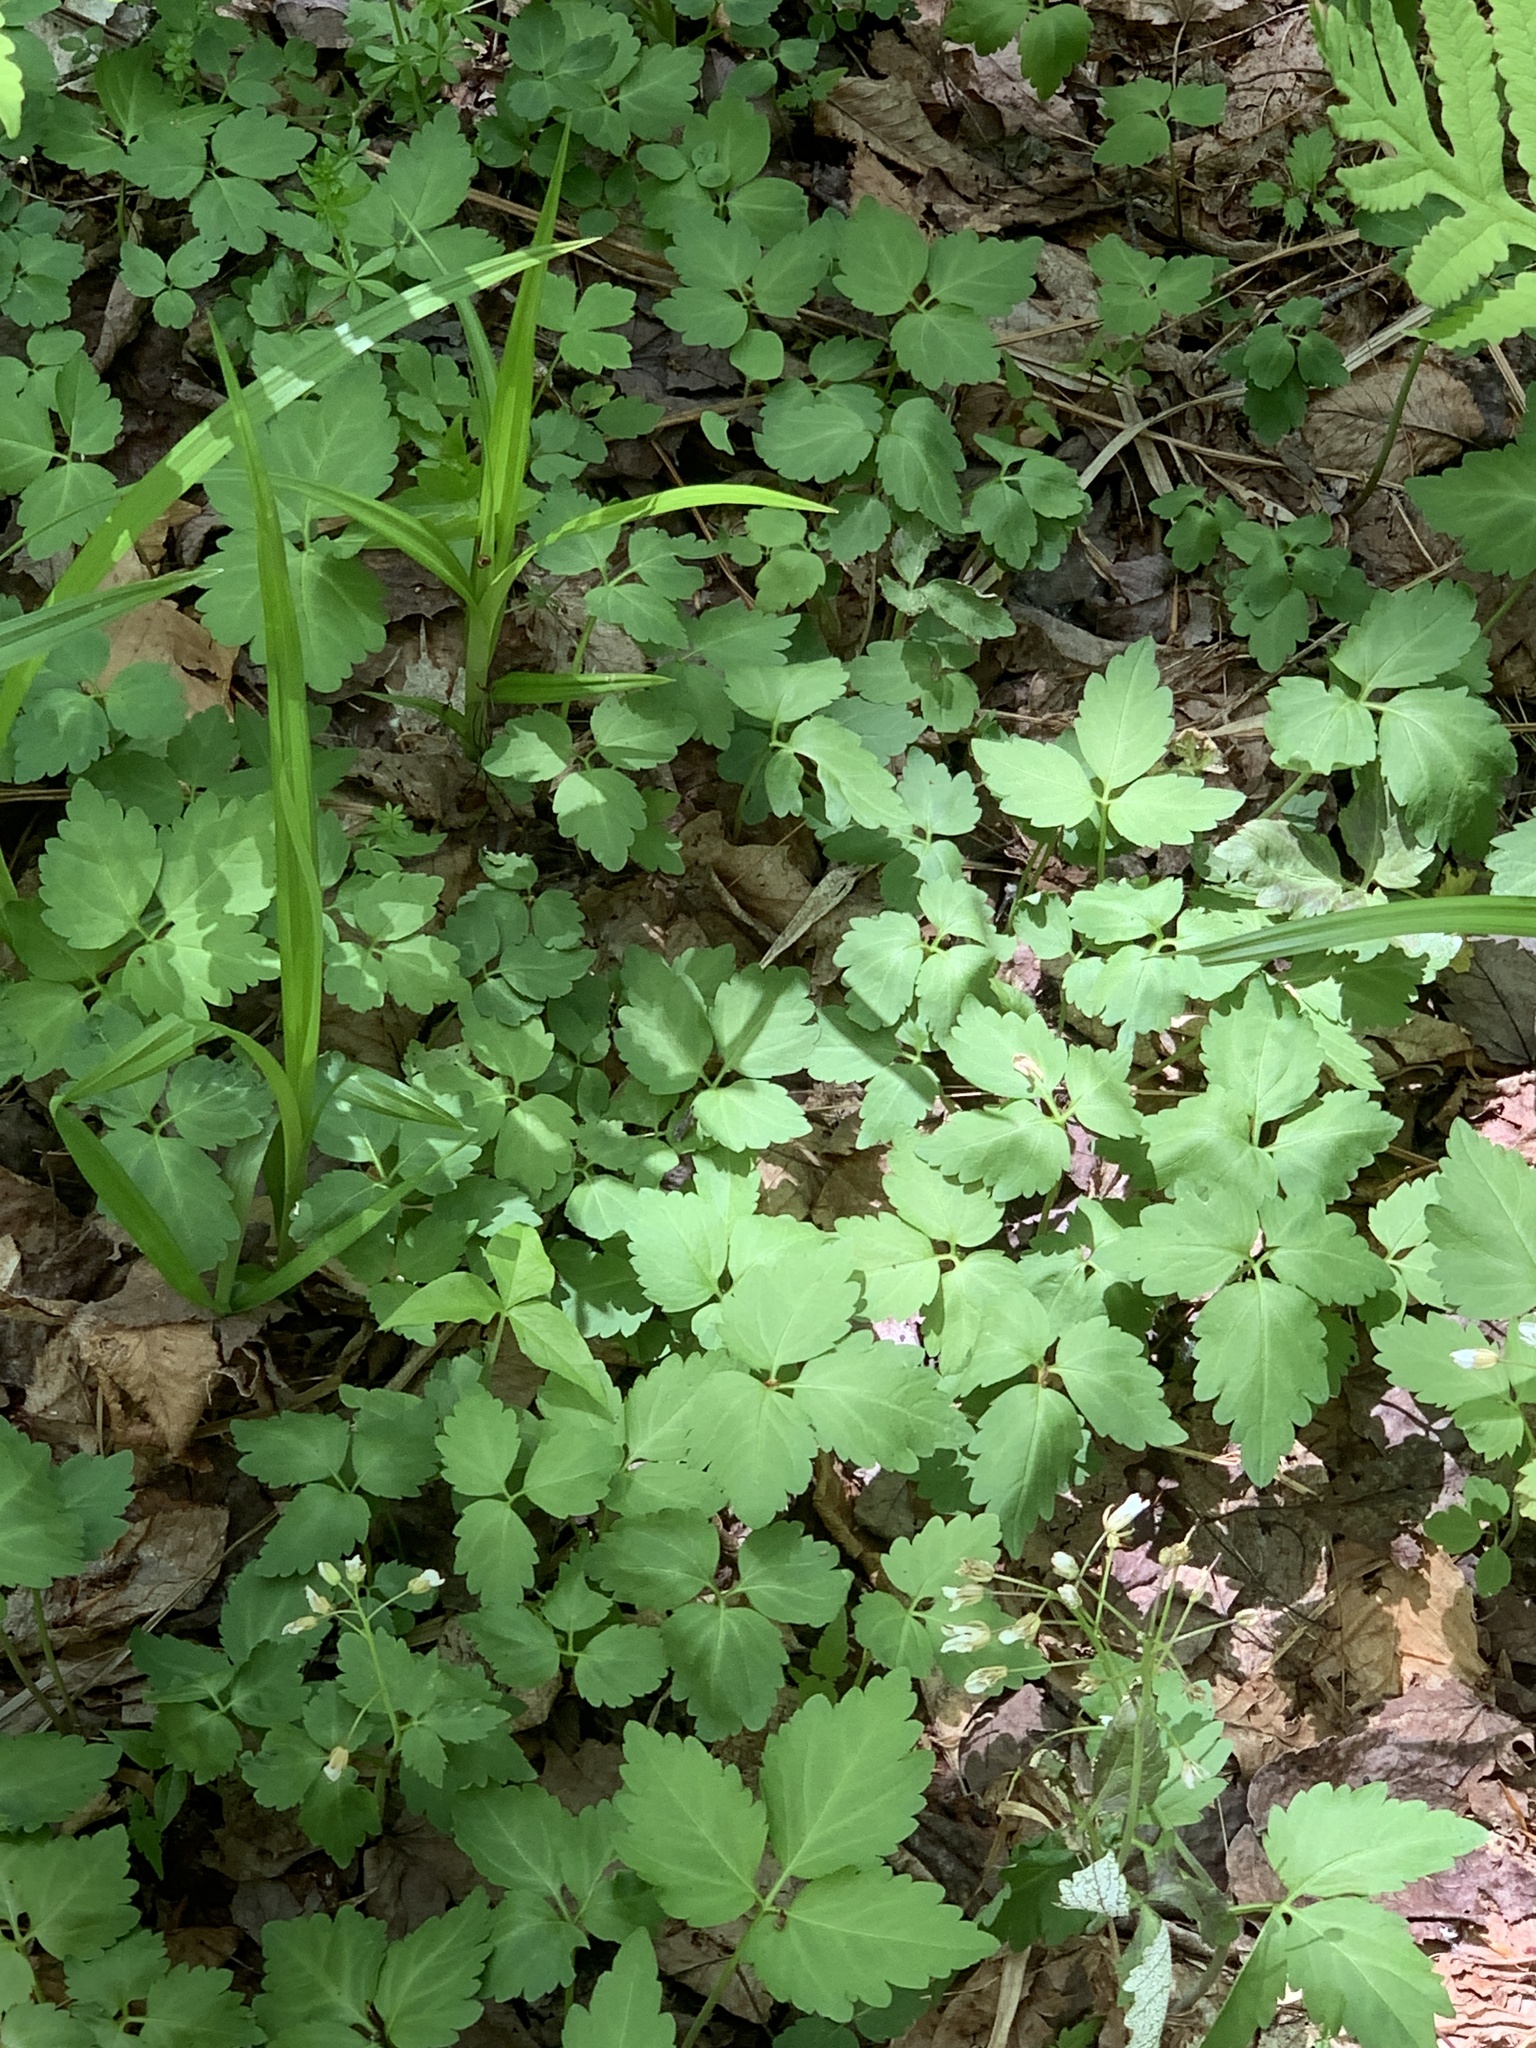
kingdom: Plantae
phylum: Tracheophyta
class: Magnoliopsida
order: Brassicales
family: Brassicaceae
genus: Cardamine
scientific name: Cardamine diphylla
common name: Broad-leaved toothwort
